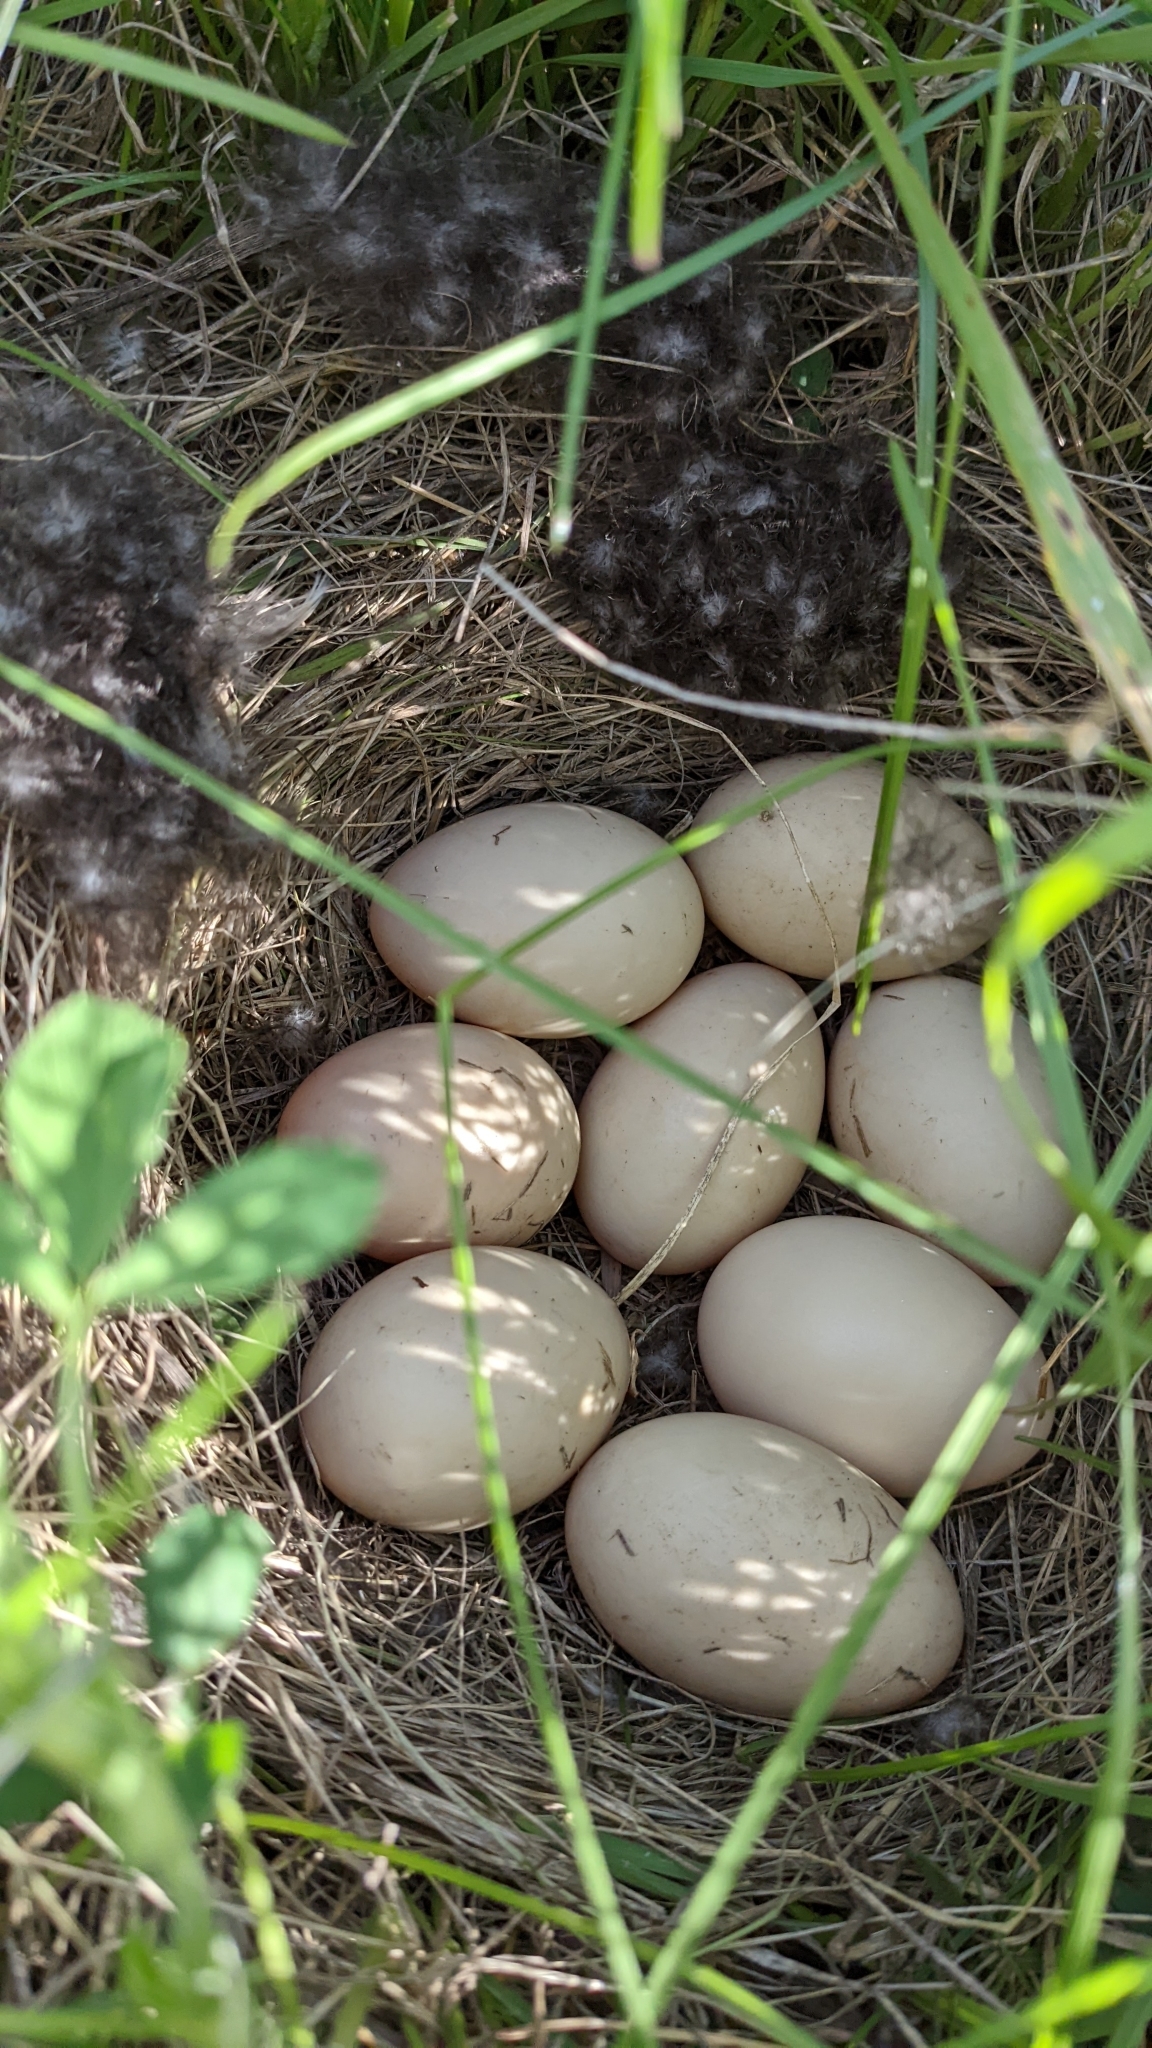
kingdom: Animalia
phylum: Chordata
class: Aves
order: Anseriformes
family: Anatidae
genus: Anas
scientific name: Anas platyrhynchos
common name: Mallard
